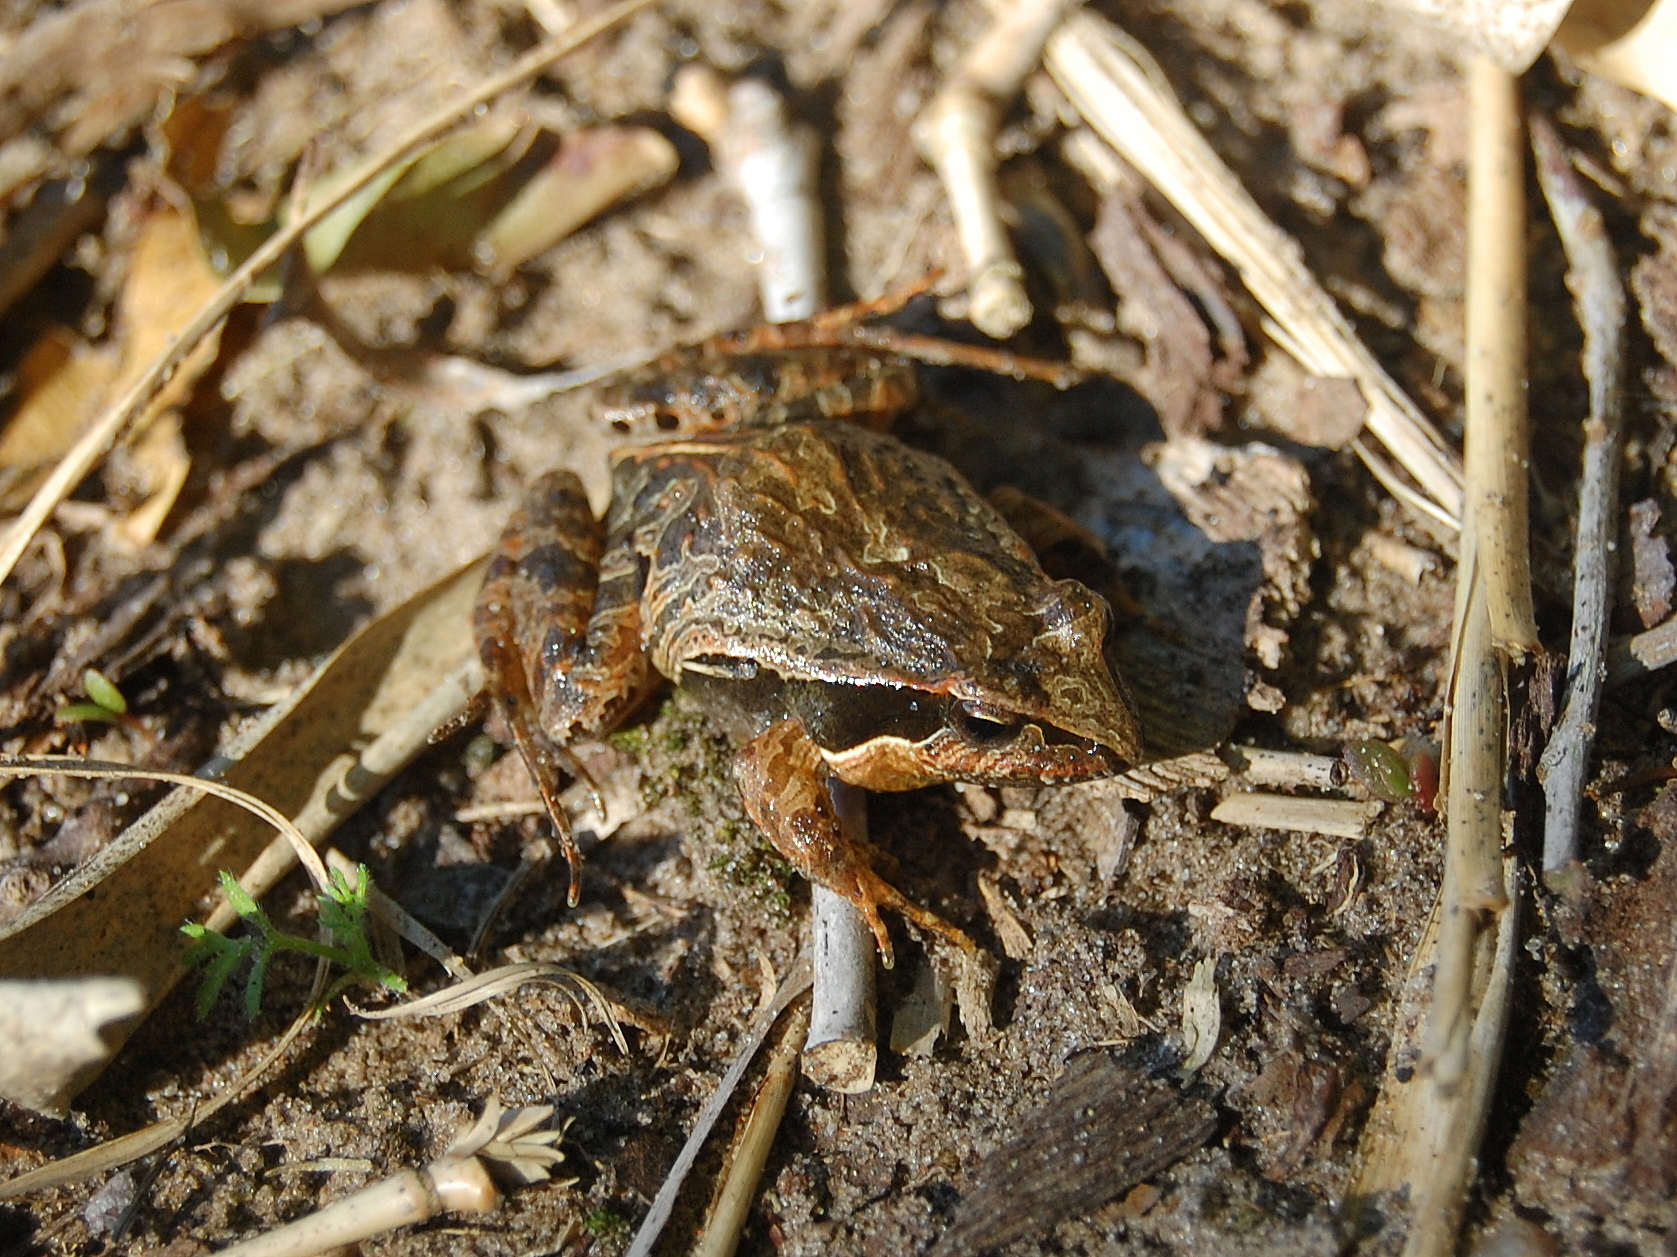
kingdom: Animalia
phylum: Chordata
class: Amphibia
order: Anura
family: Leptodactylidae
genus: Physalaemus
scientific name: Physalaemus gracilis
